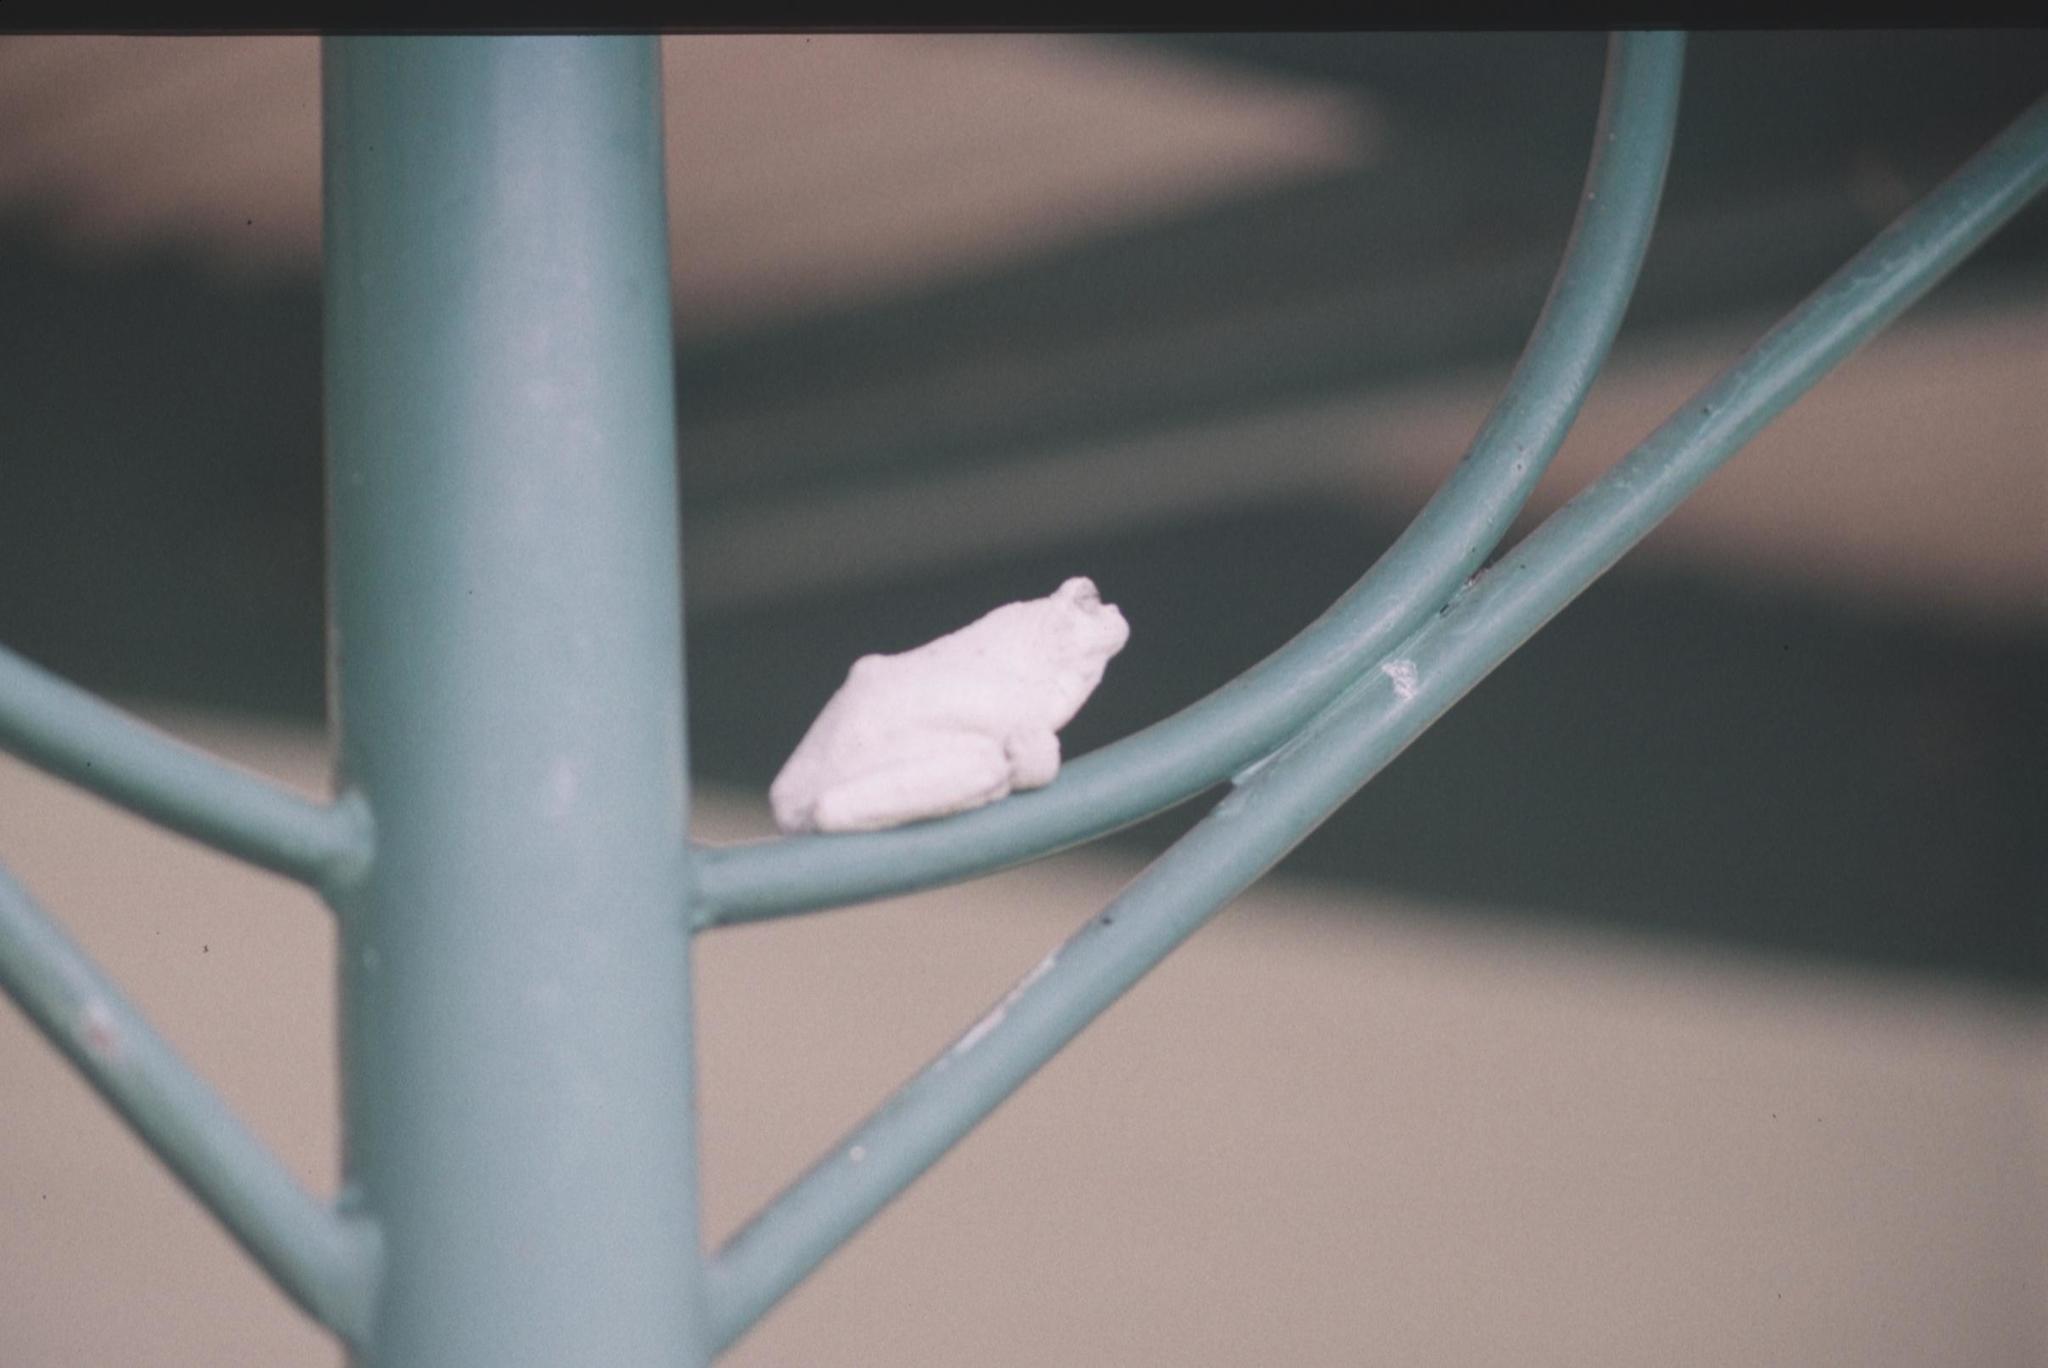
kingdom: Animalia
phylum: Chordata
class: Amphibia
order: Anura
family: Rhacophoridae
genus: Chiromantis
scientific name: Chiromantis xerampelina
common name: African gray treefrog
